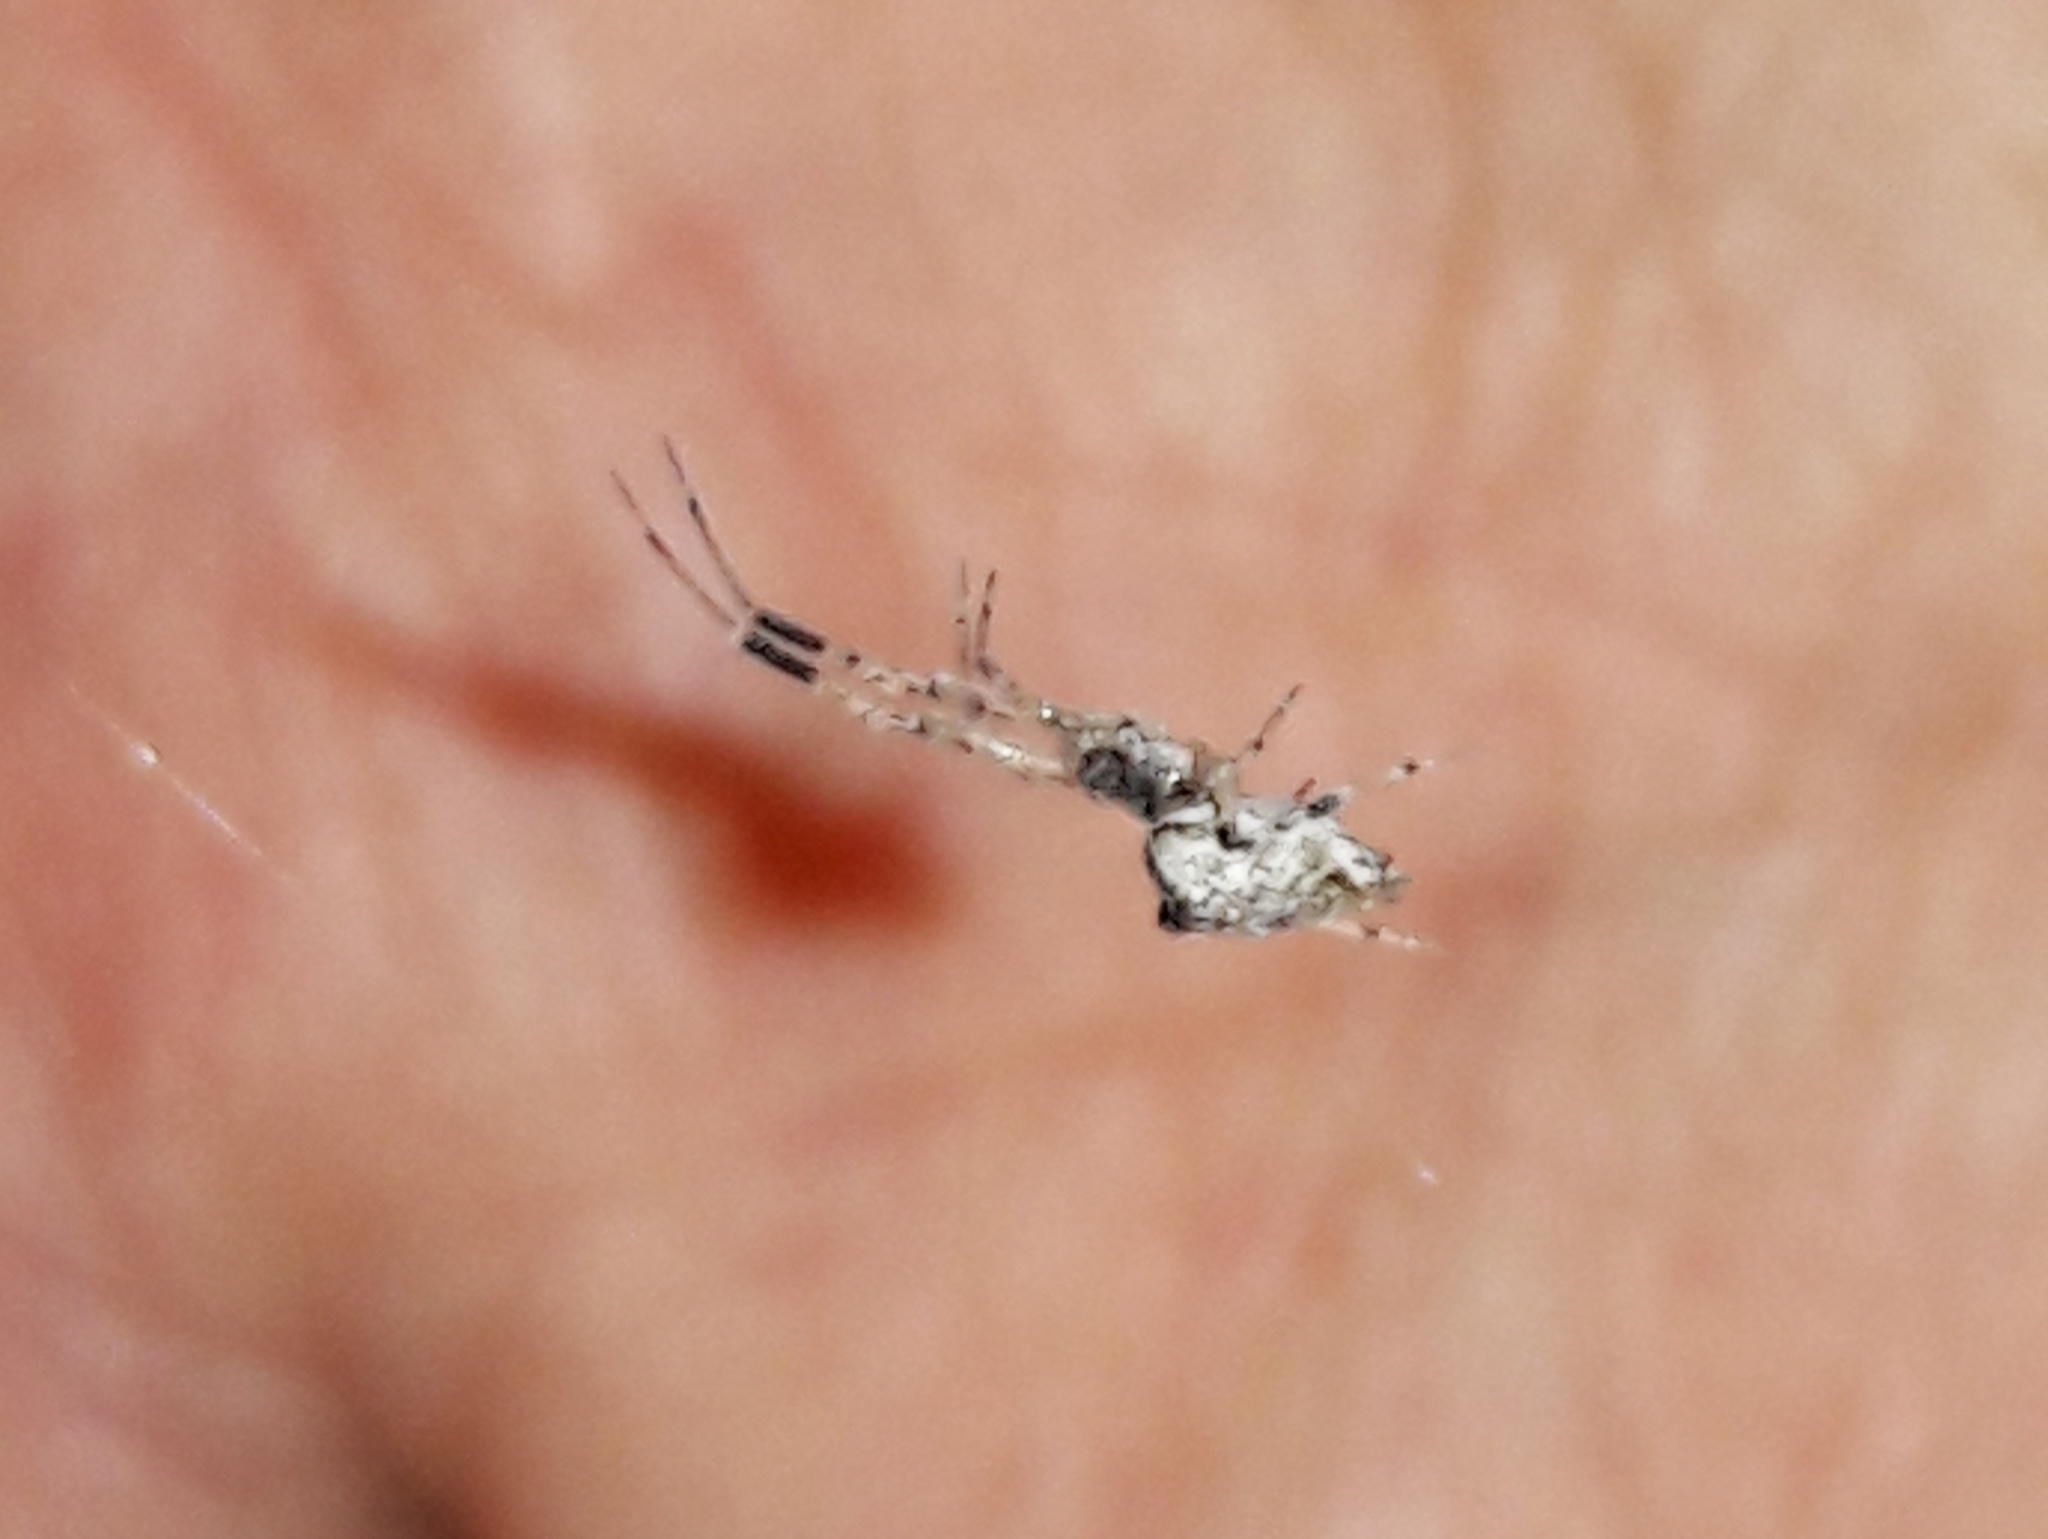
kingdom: Animalia
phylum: Arthropoda
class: Arachnida
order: Araneae
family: Uloboridae
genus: Zosis
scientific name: Zosis geniculata
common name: Hackled orb weavers
